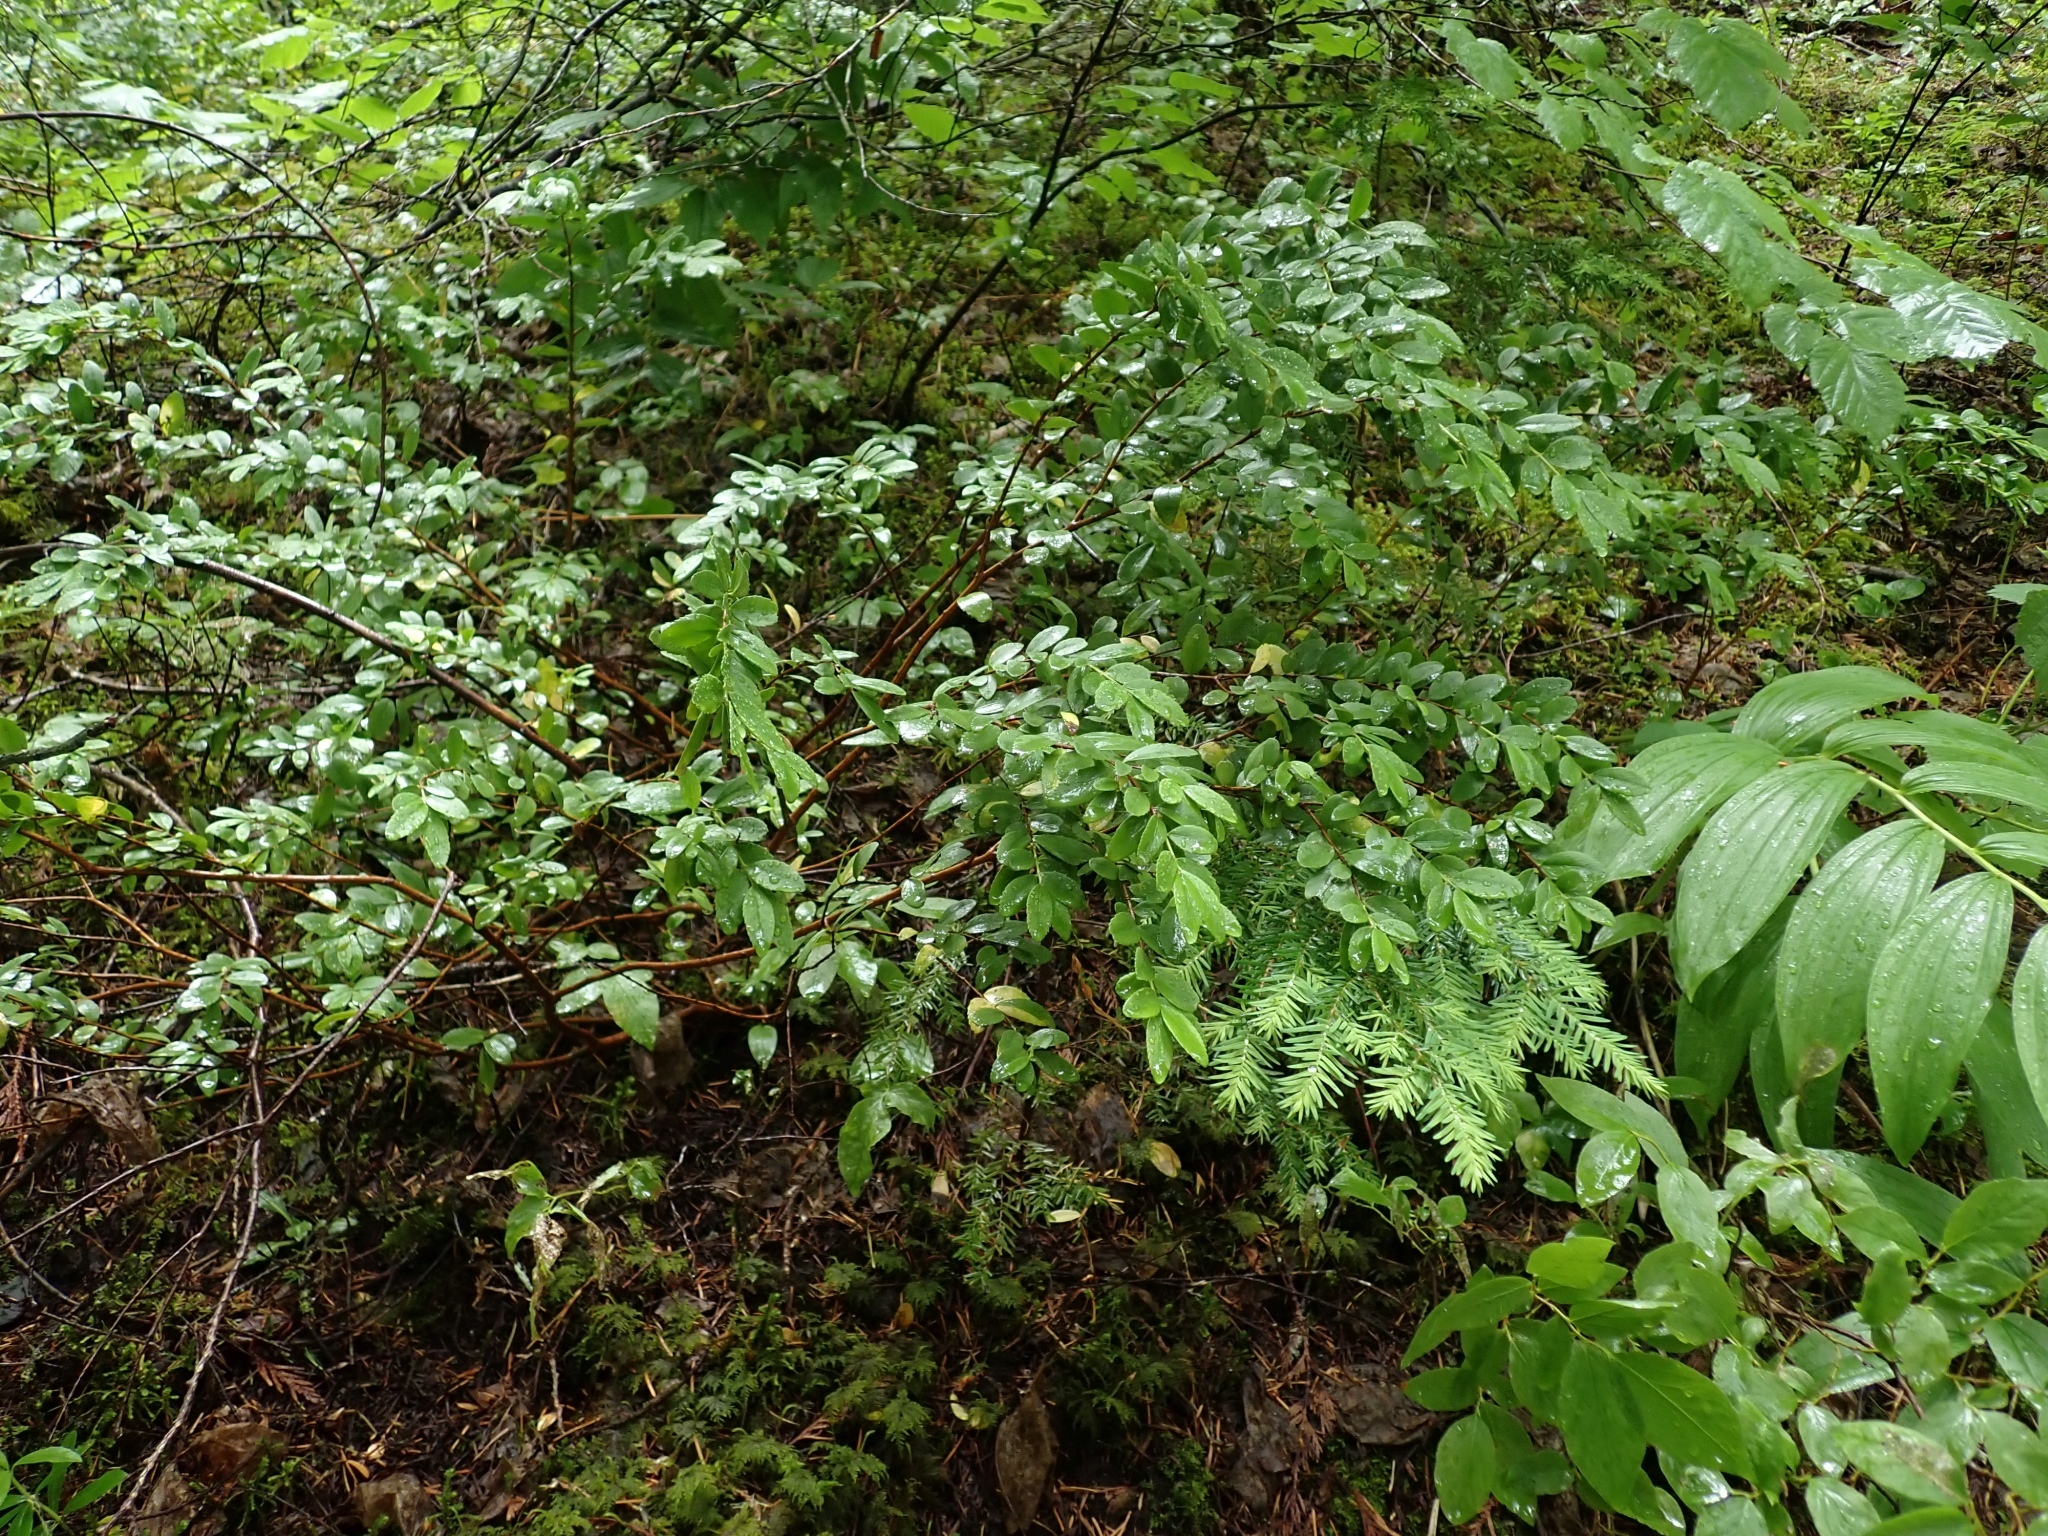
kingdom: Plantae
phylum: Tracheophyta
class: Magnoliopsida
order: Celastrales
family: Celastraceae
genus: Paxistima
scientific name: Paxistima myrsinites
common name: Mountain-lover
